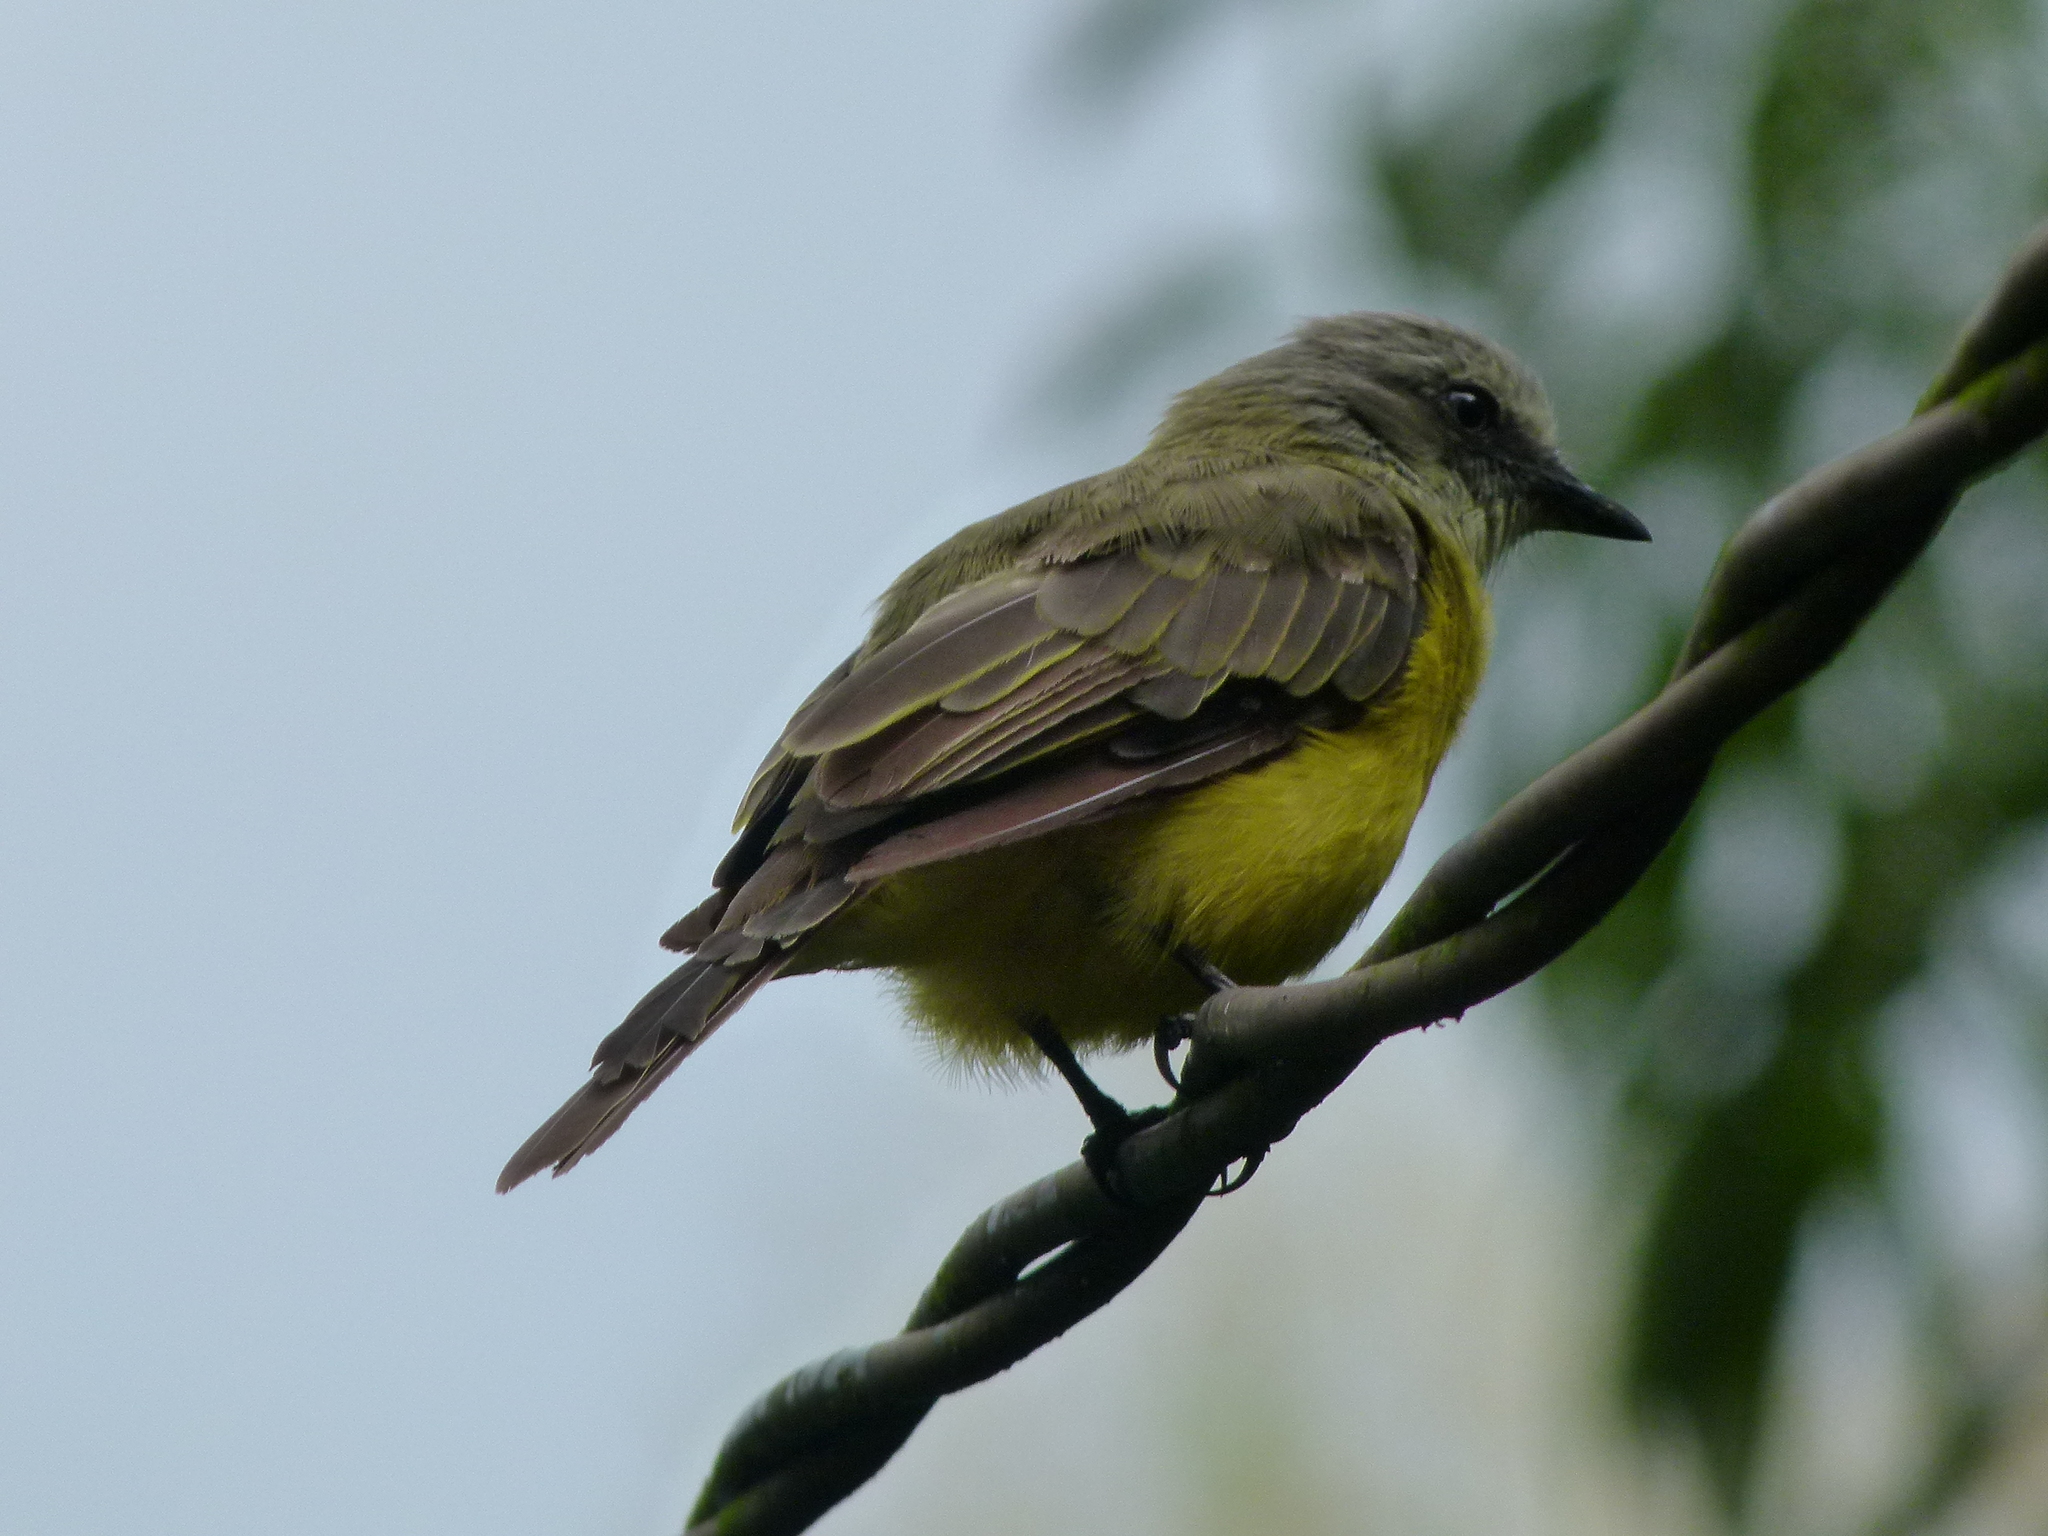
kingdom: Animalia
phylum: Chordata
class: Aves
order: Passeriformes
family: Tyrannidae
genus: Myiozetetes
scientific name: Myiozetetes granadensis
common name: Gray-capped flycatcher
